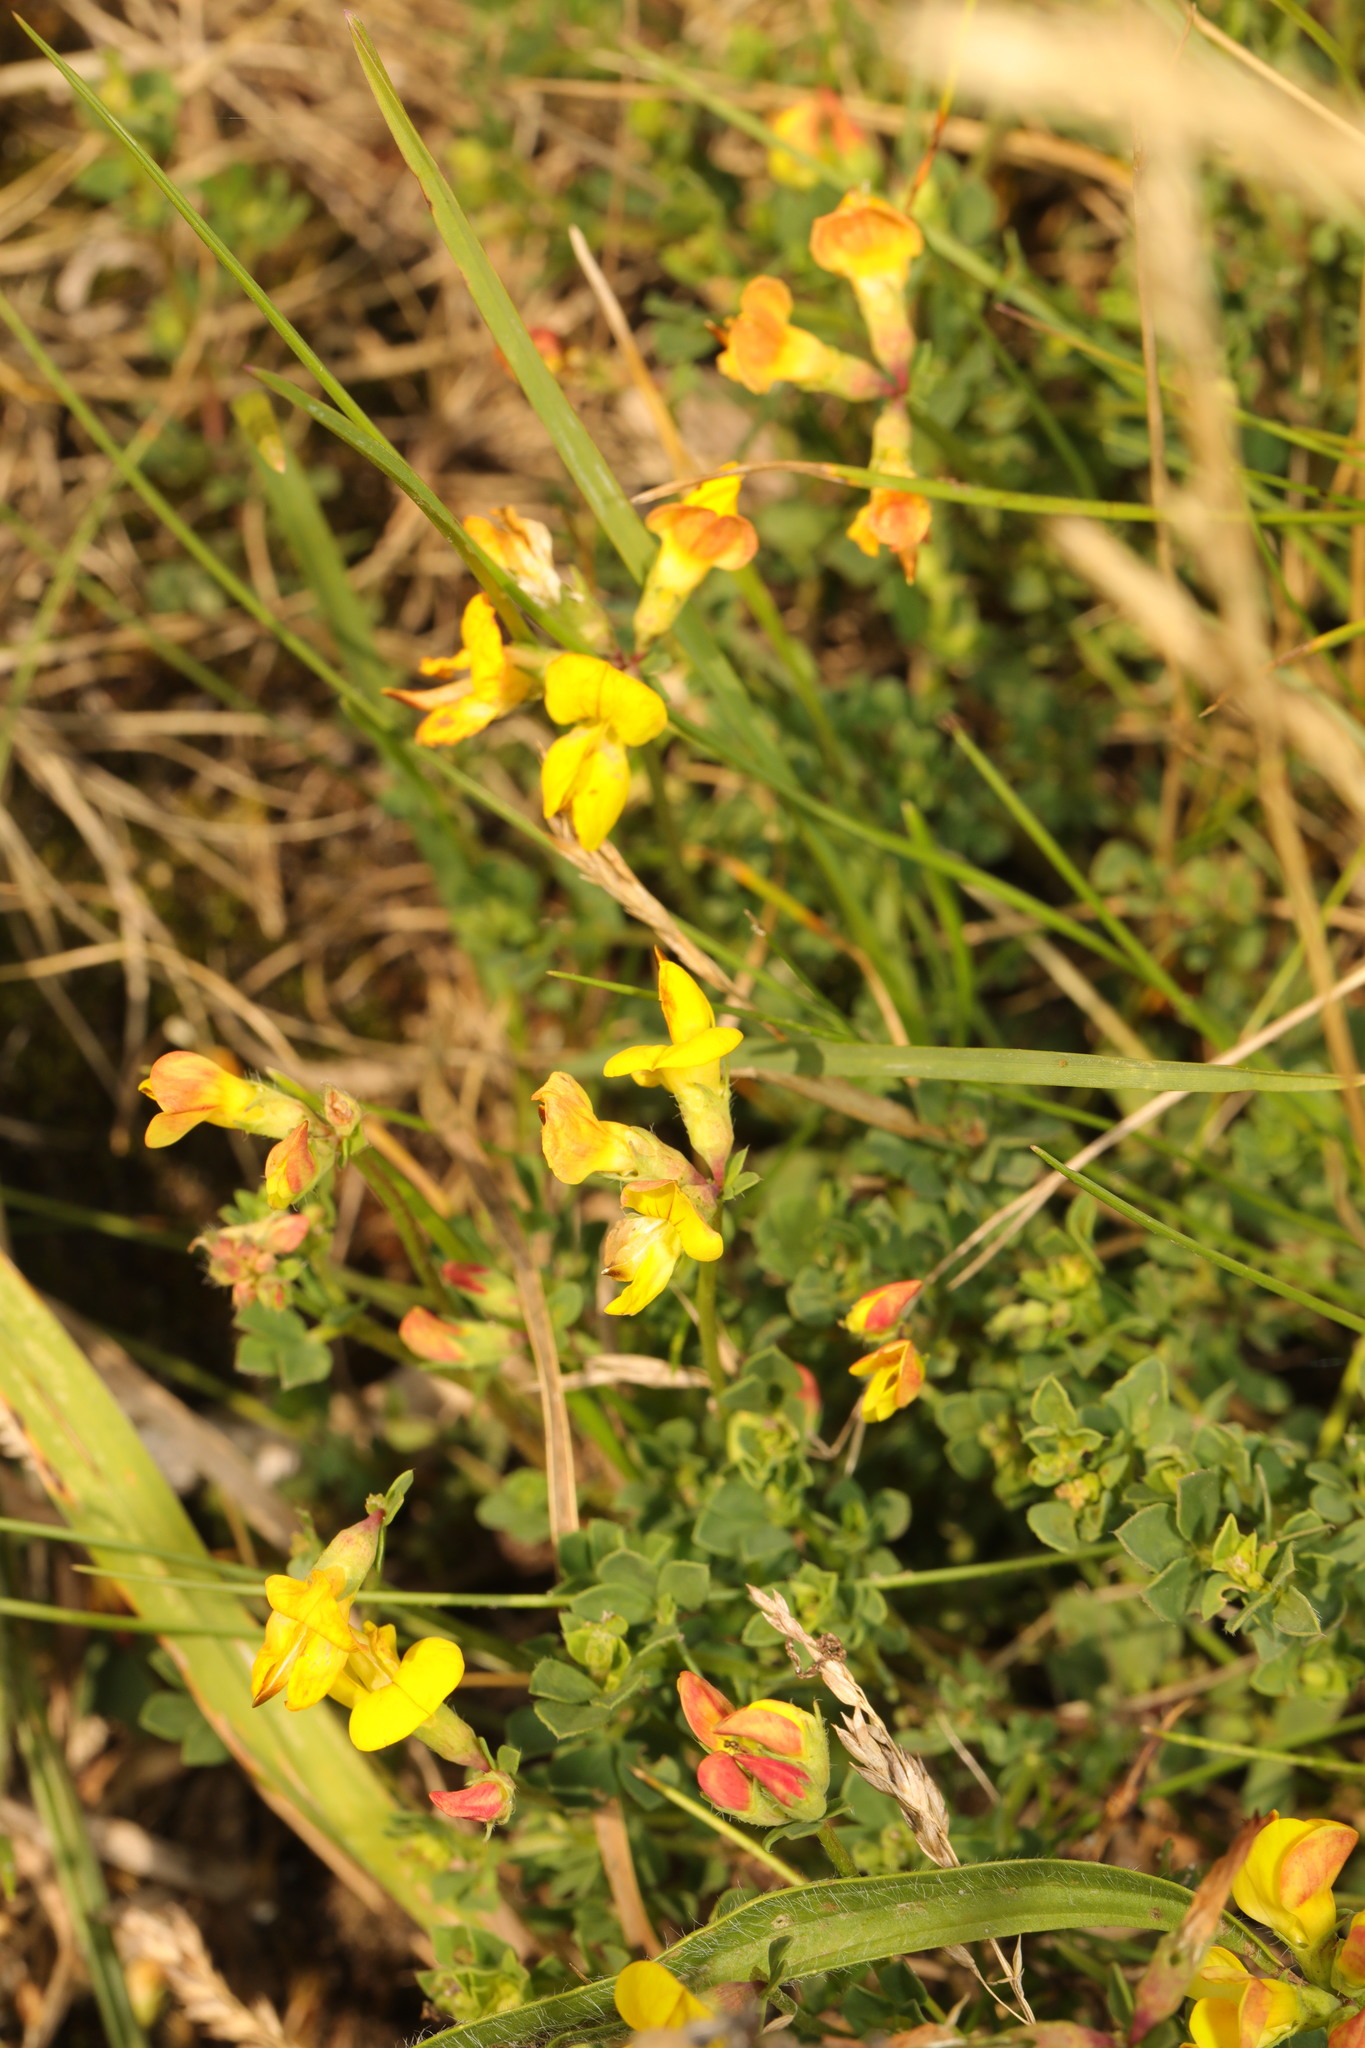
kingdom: Plantae
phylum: Tracheophyta
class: Magnoliopsida
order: Fabales
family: Fabaceae
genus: Lotus
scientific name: Lotus corniculatus
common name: Common bird's-foot-trefoil
